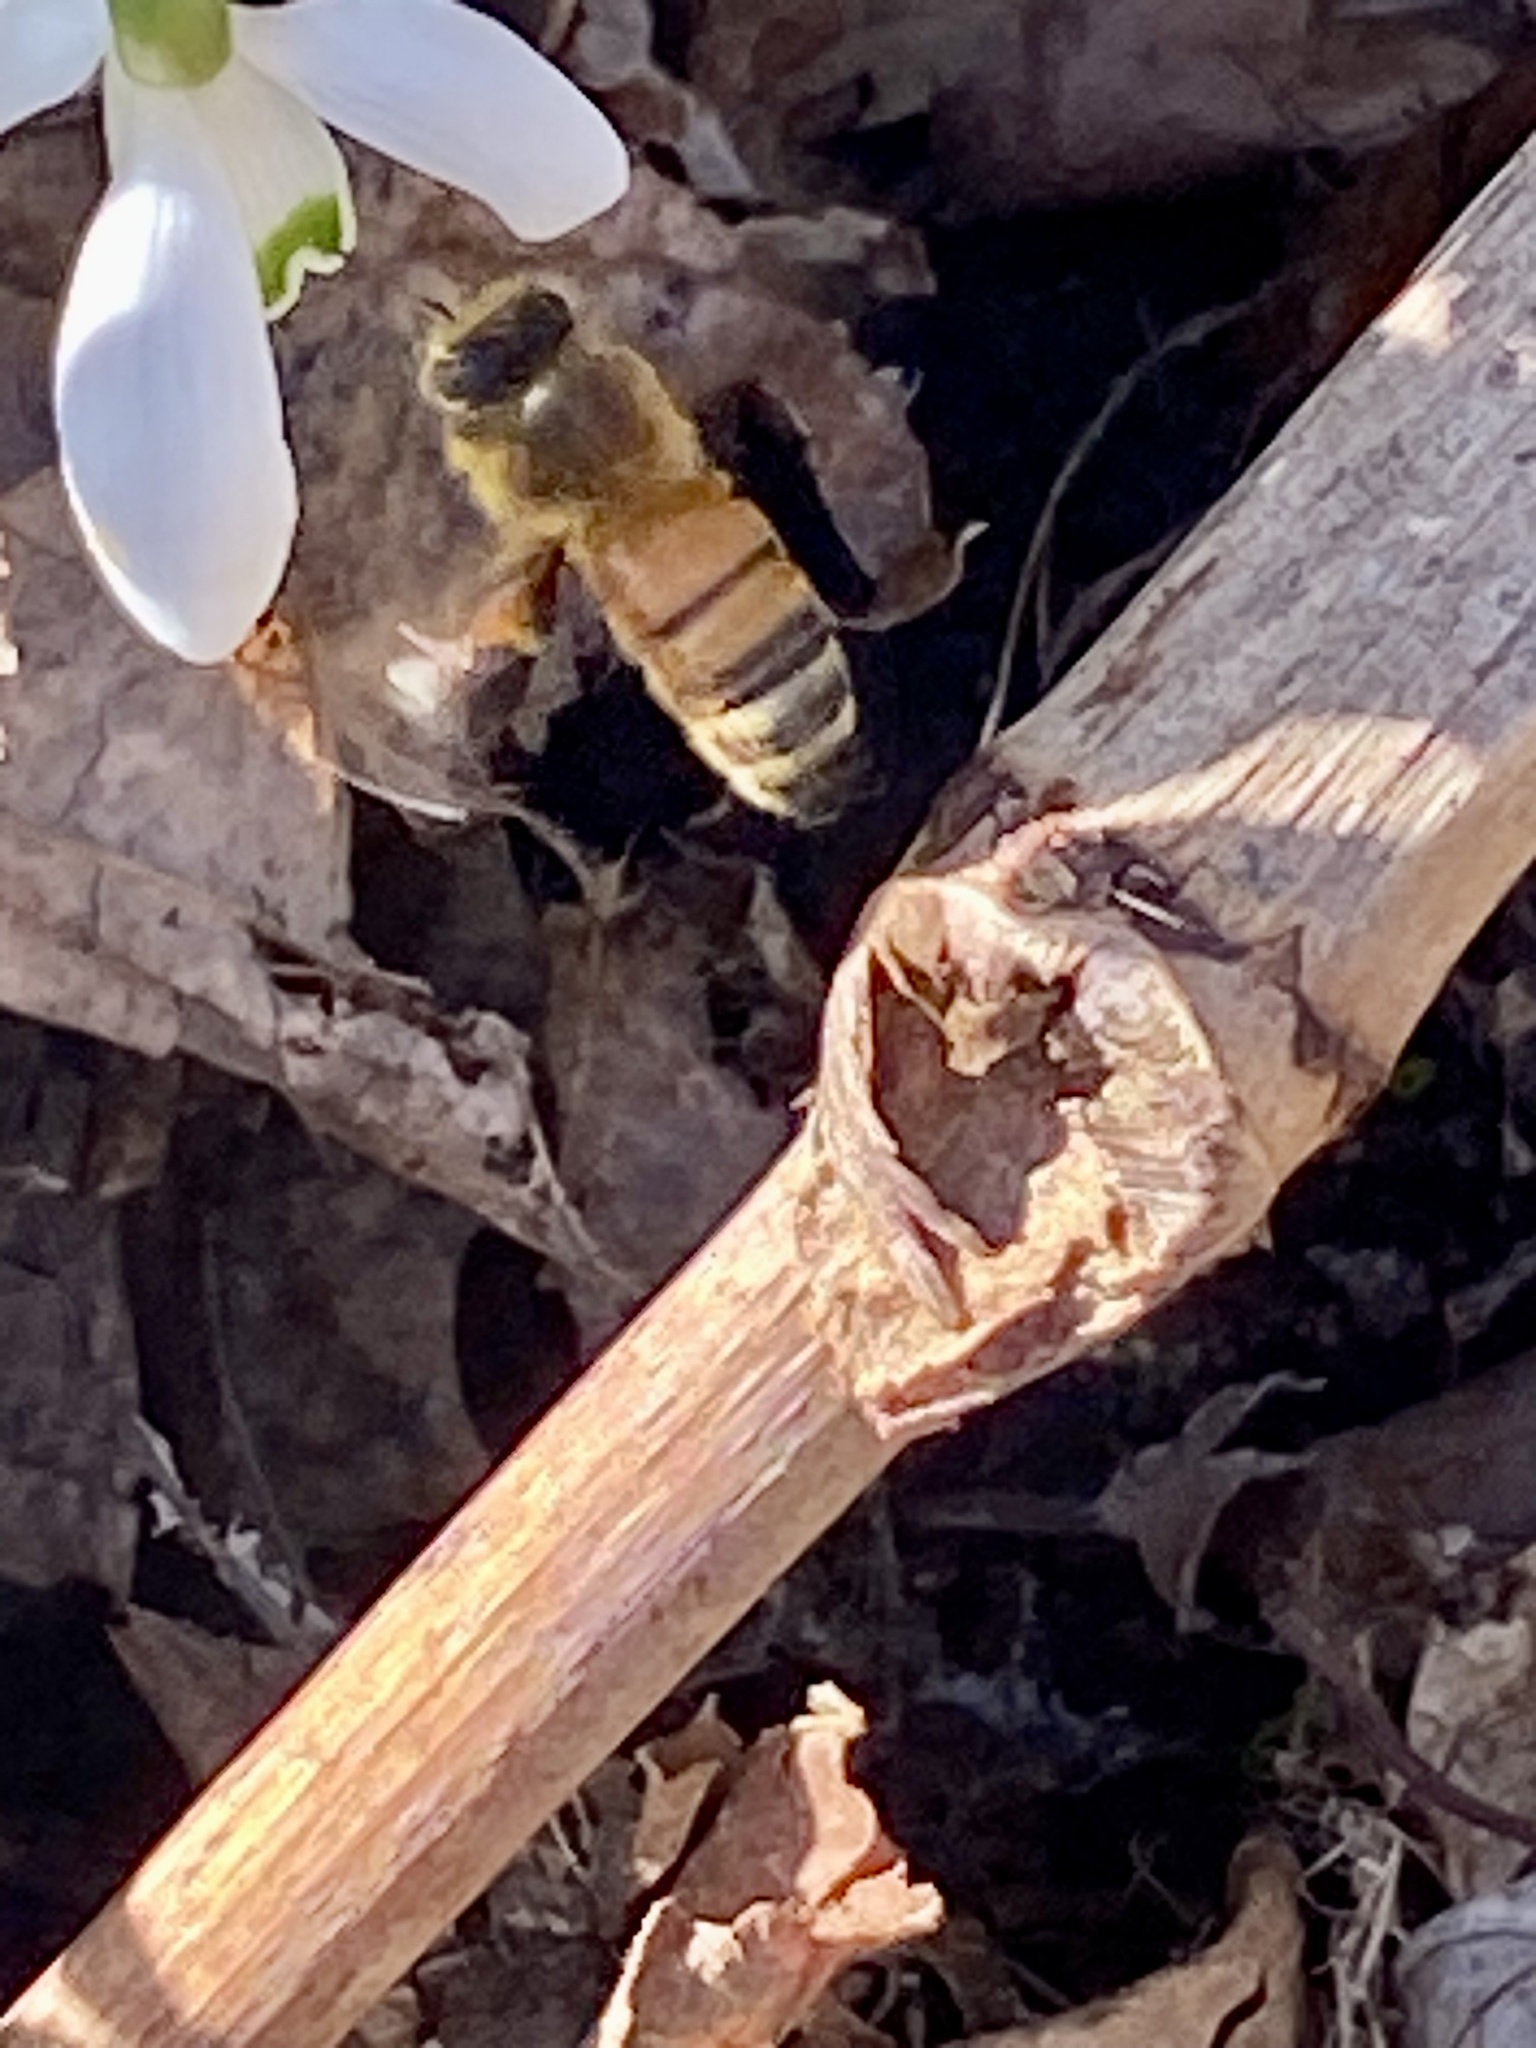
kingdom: Animalia
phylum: Arthropoda
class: Insecta
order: Hymenoptera
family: Apidae
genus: Apis
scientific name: Apis mellifera
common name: Honey bee
